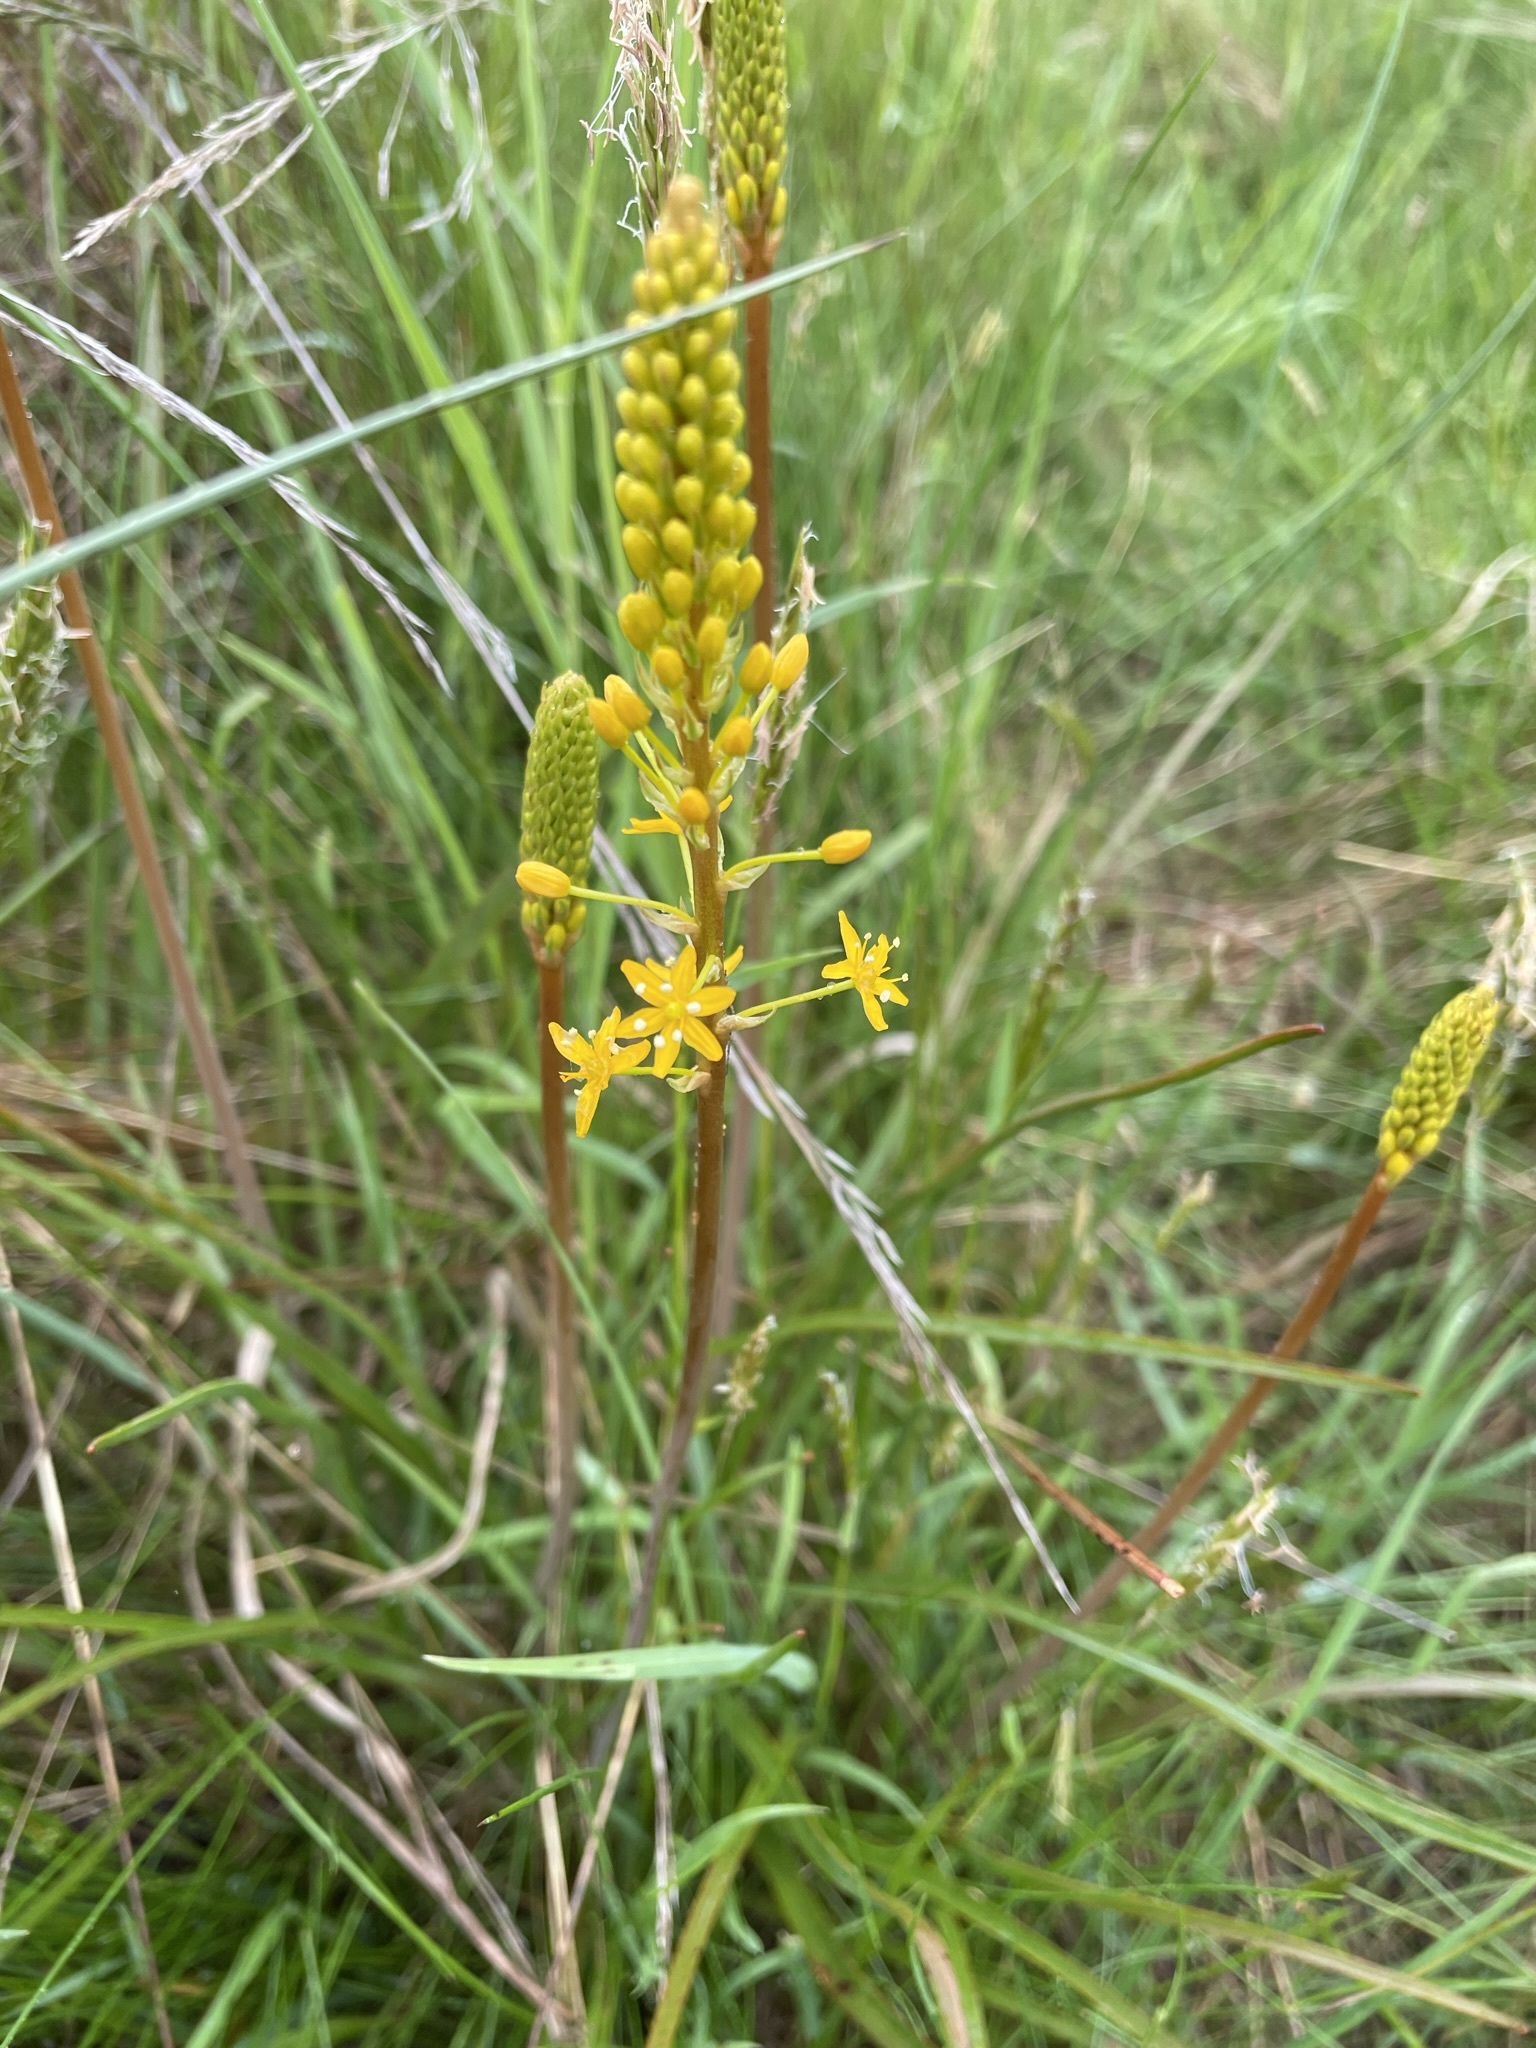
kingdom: Plantae
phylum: Tracheophyta
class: Liliopsida
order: Asparagales
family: Asphodelaceae
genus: Bulbinella
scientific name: Bulbinella angustifolia
